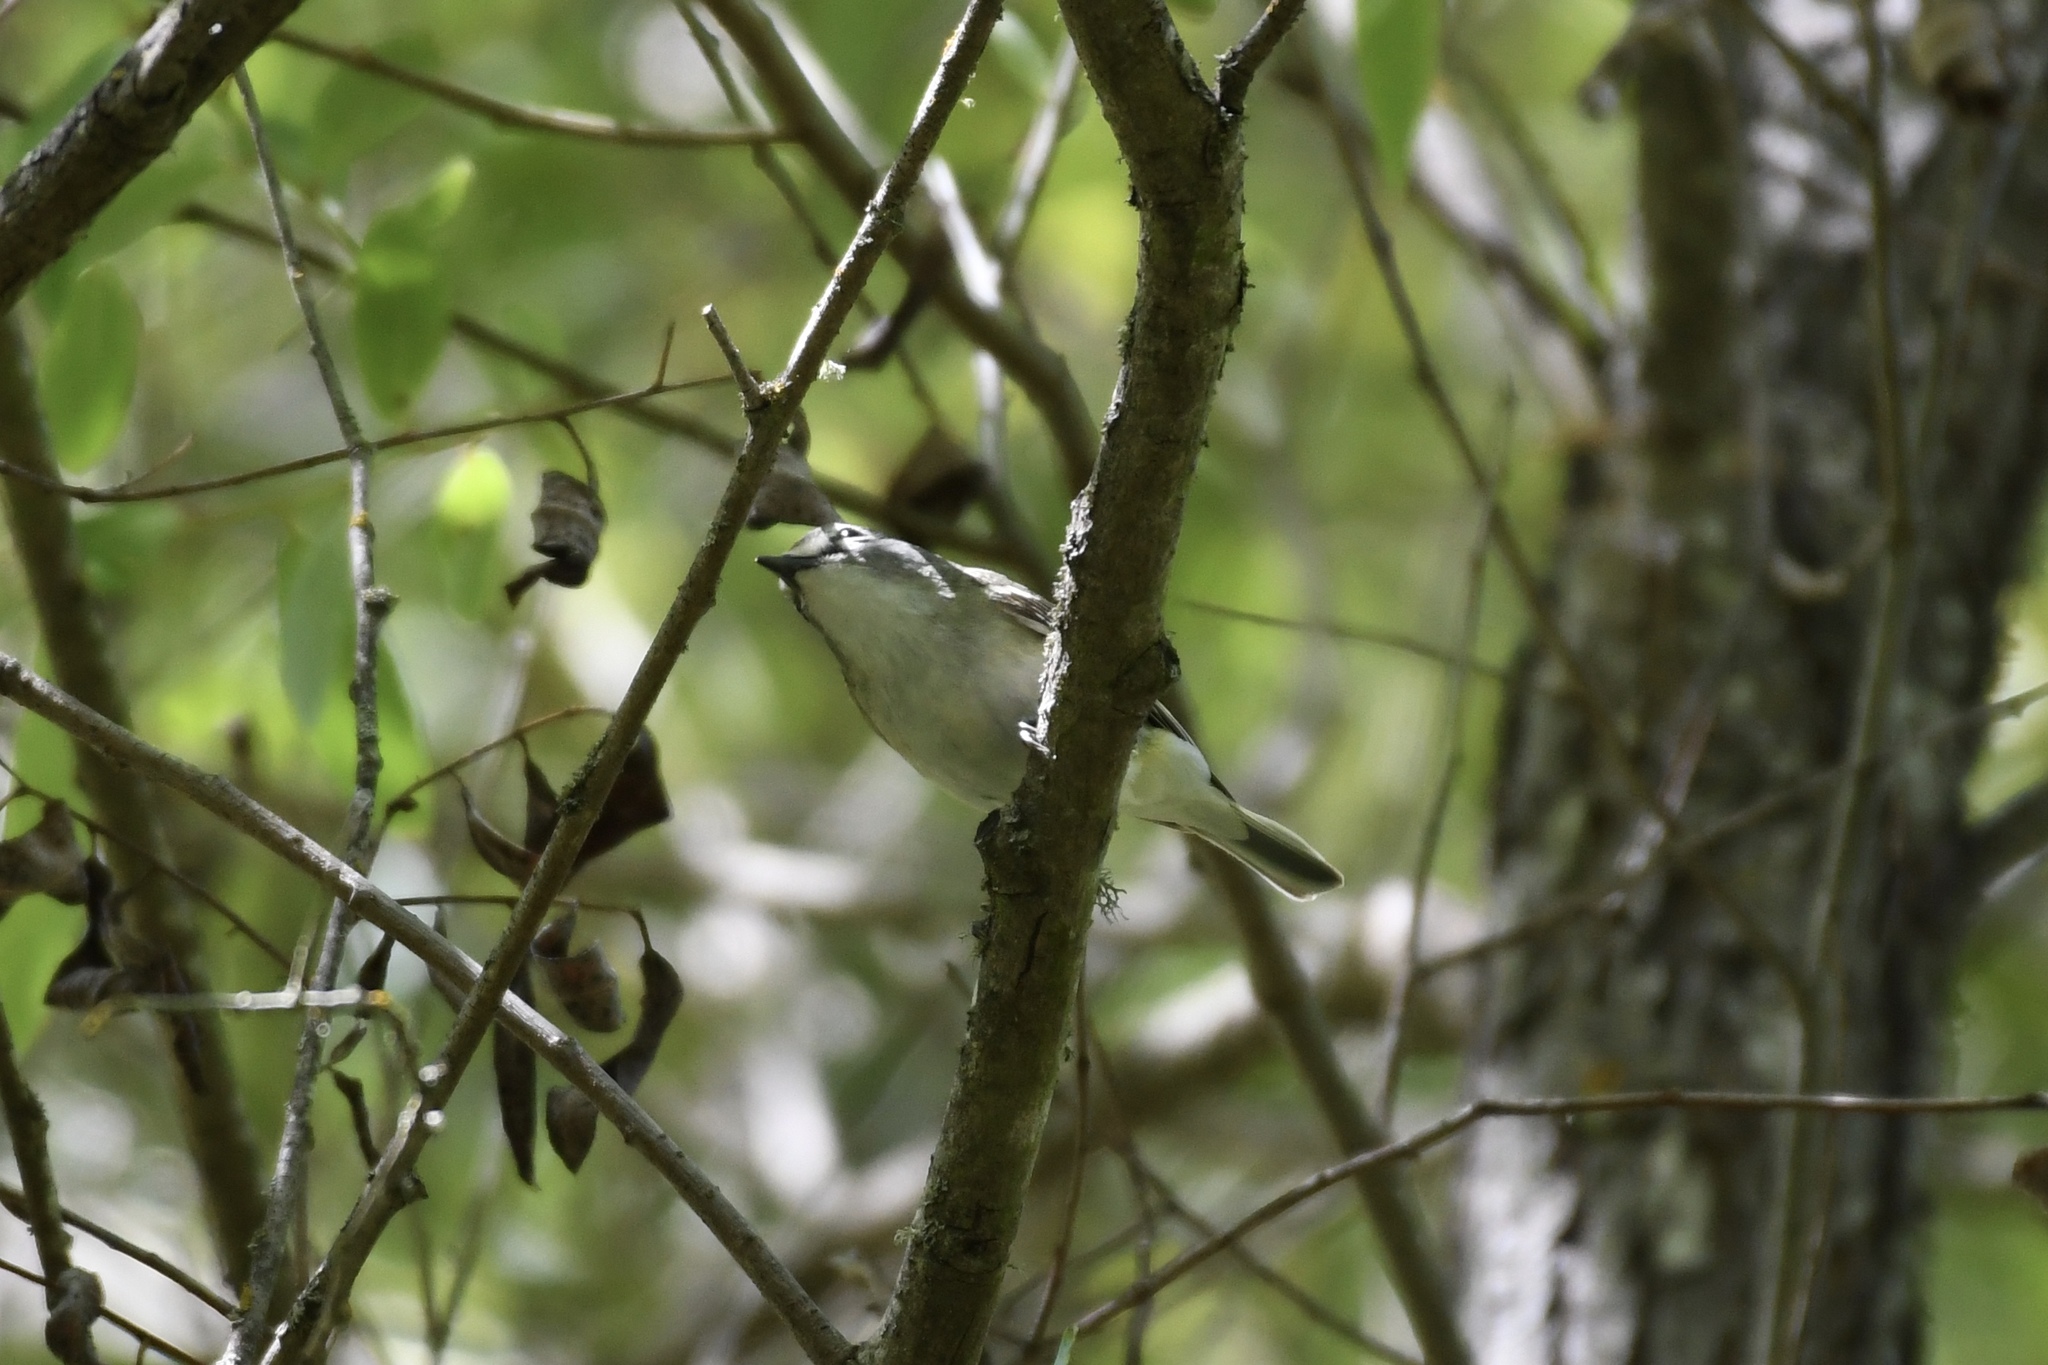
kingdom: Animalia
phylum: Chordata
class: Aves
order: Passeriformes
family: Vireonidae
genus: Vireo
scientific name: Vireo cassinii
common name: Cassin's vireo
